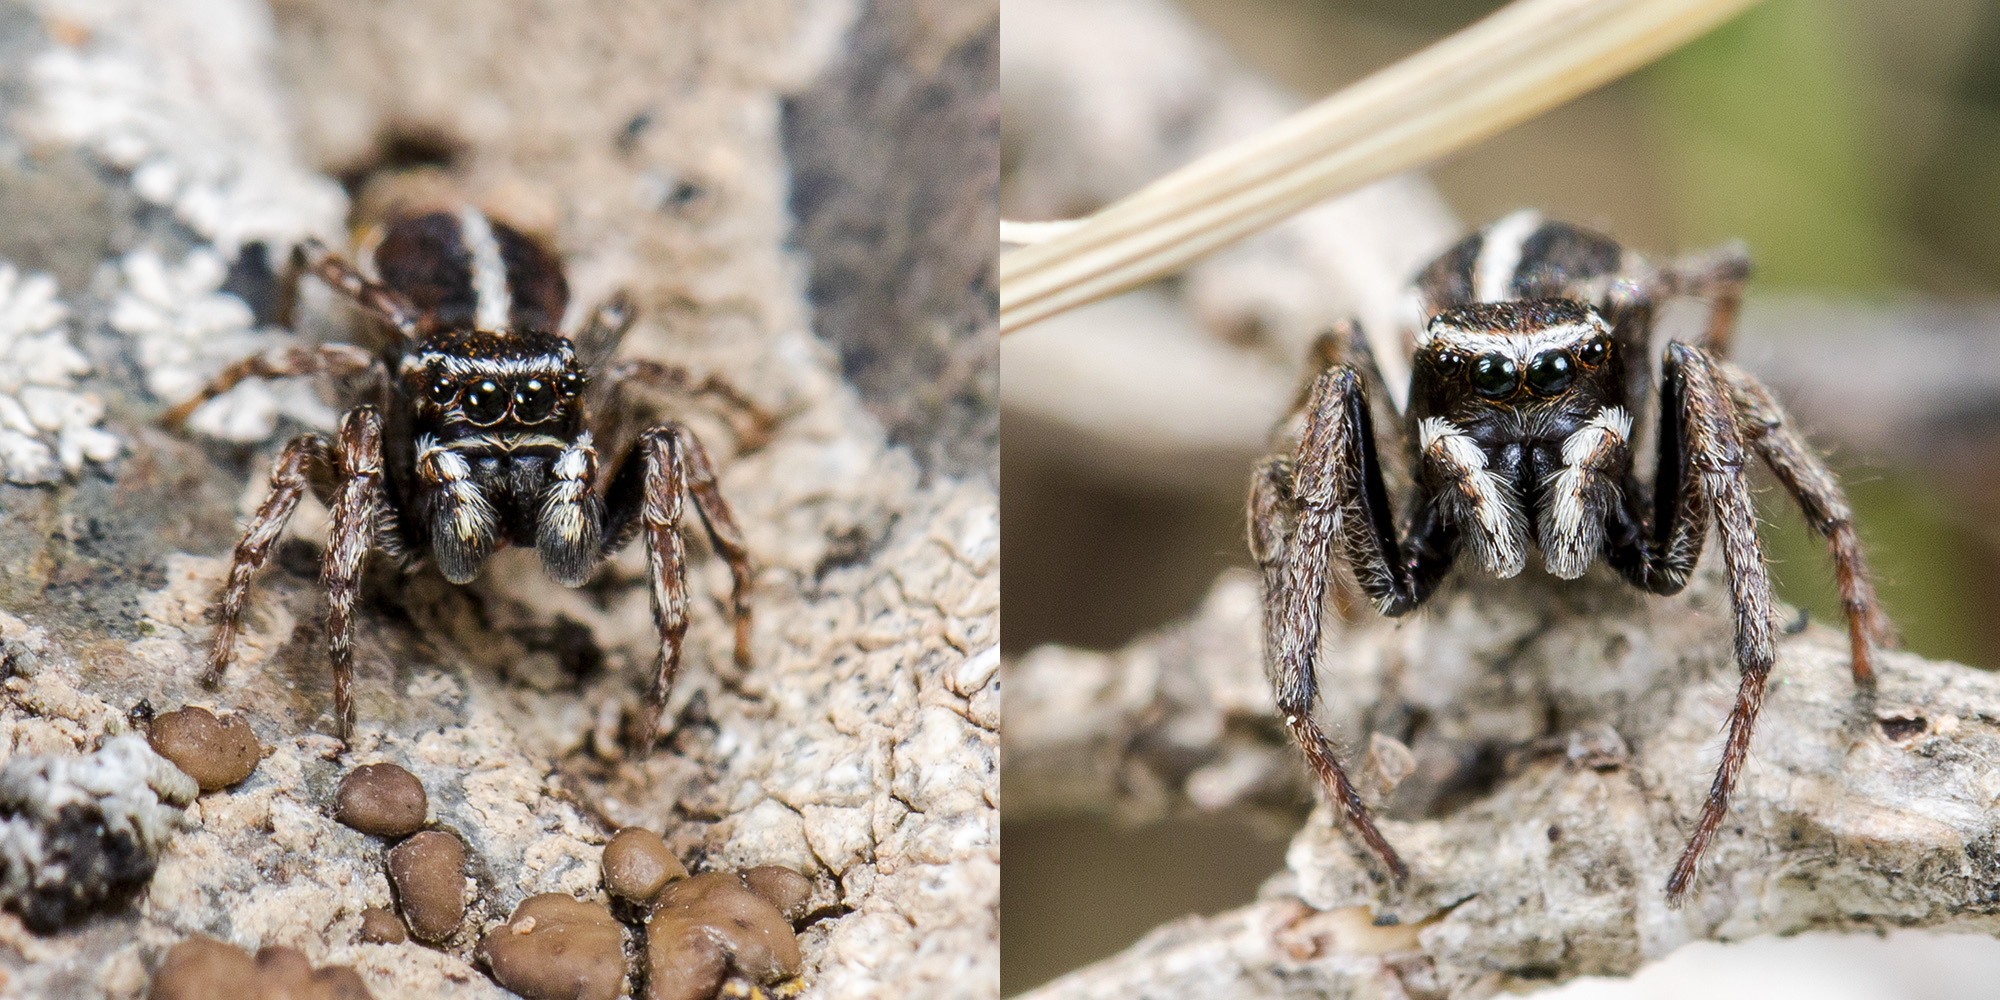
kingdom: Animalia
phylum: Arthropoda
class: Arachnida
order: Araneae
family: Salticidae
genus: Attulus
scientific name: Attulus talgarensis
